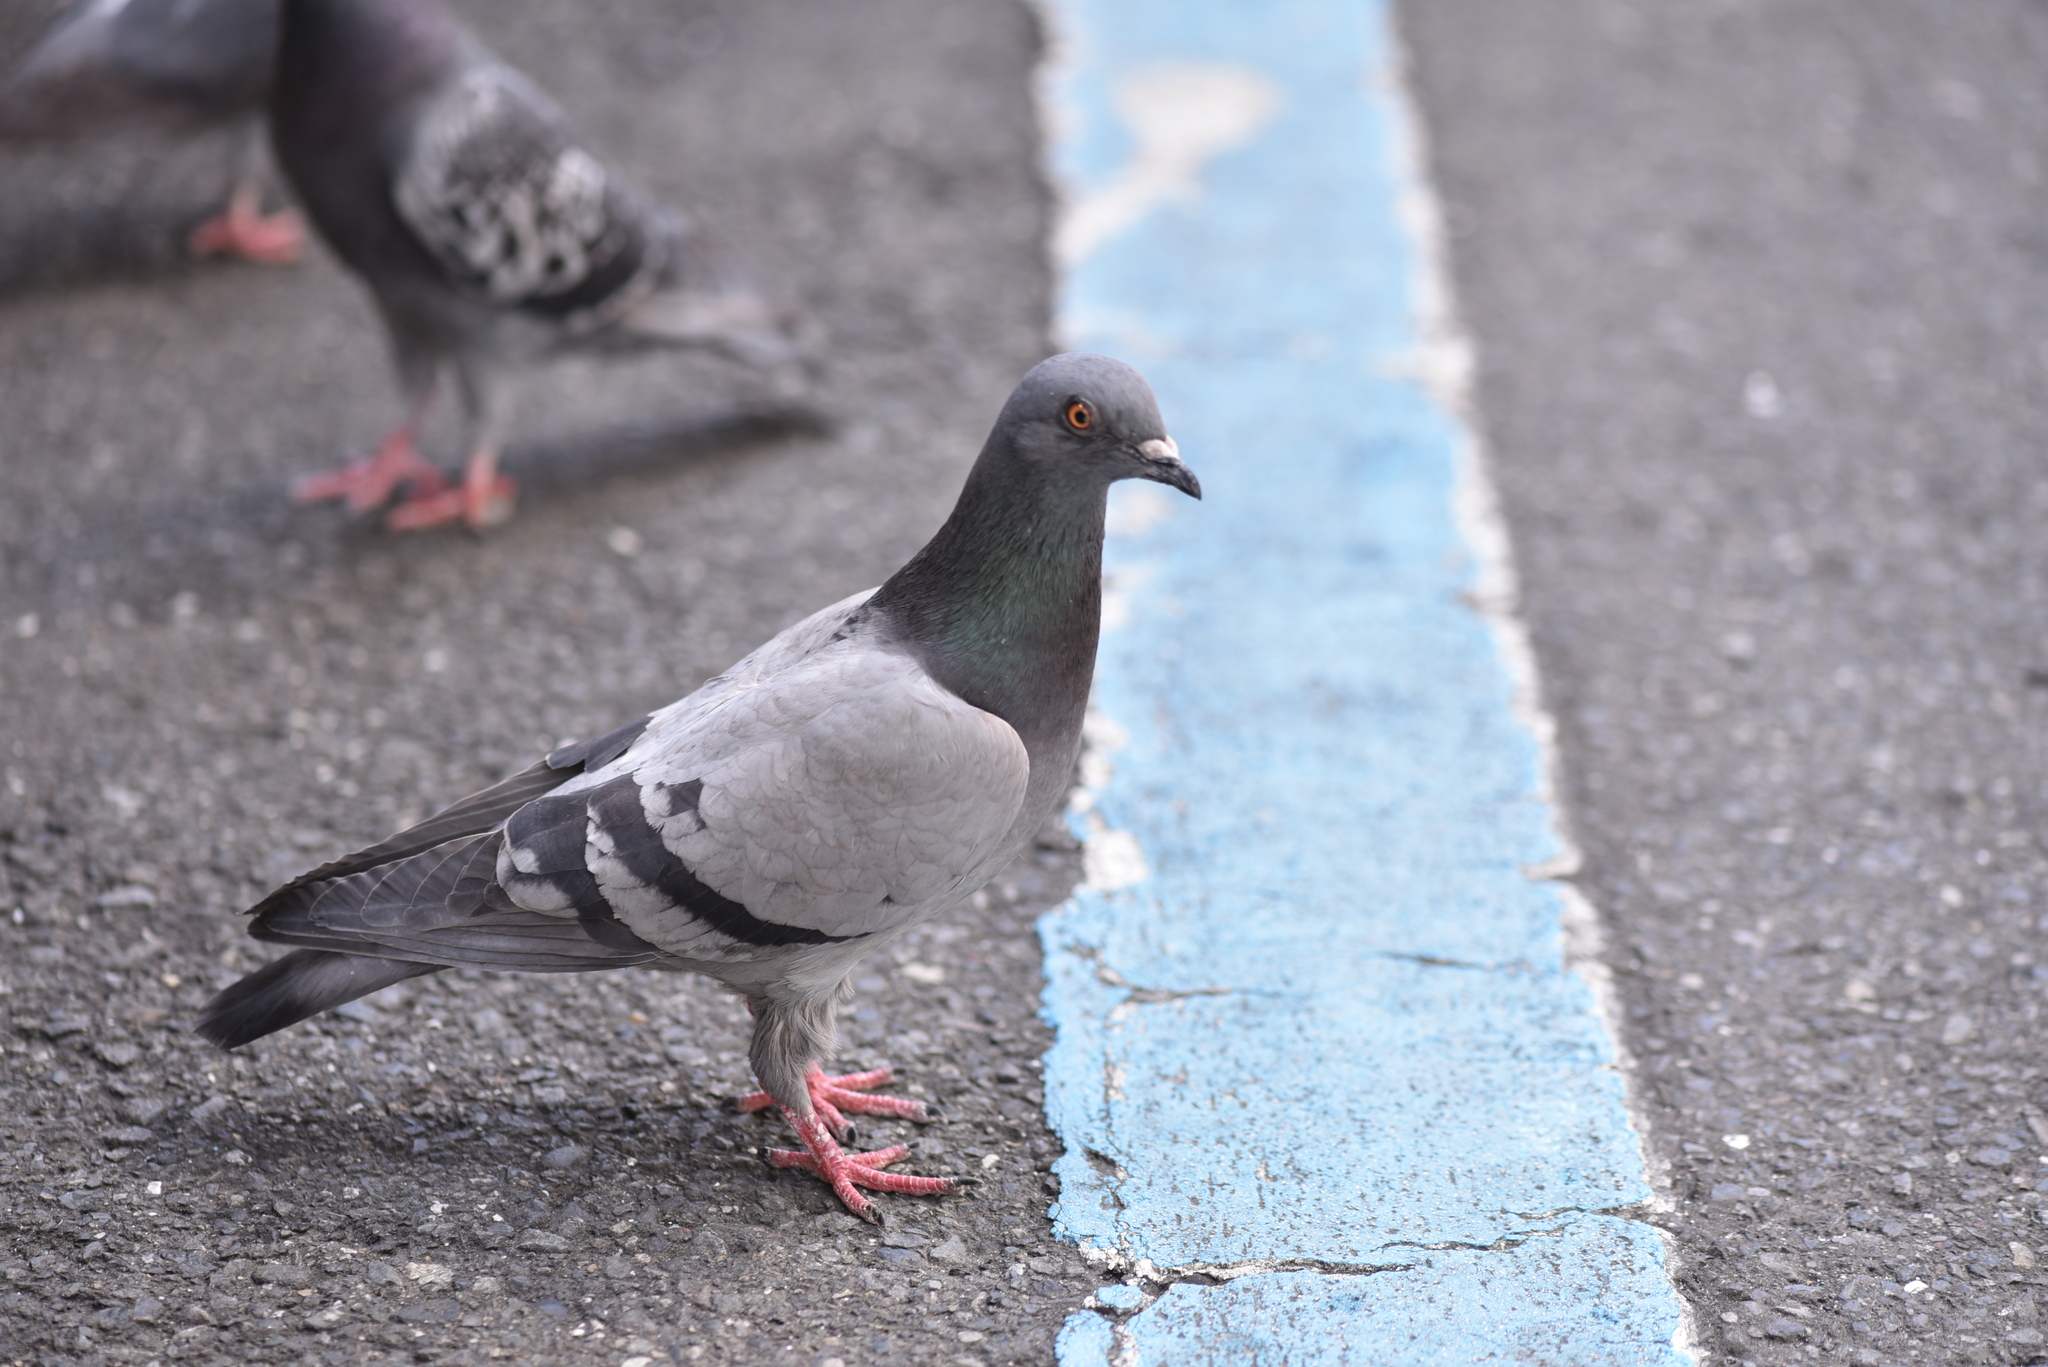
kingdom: Animalia
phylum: Chordata
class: Aves
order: Columbiformes
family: Columbidae
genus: Columba
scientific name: Columba livia
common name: Rock pigeon
